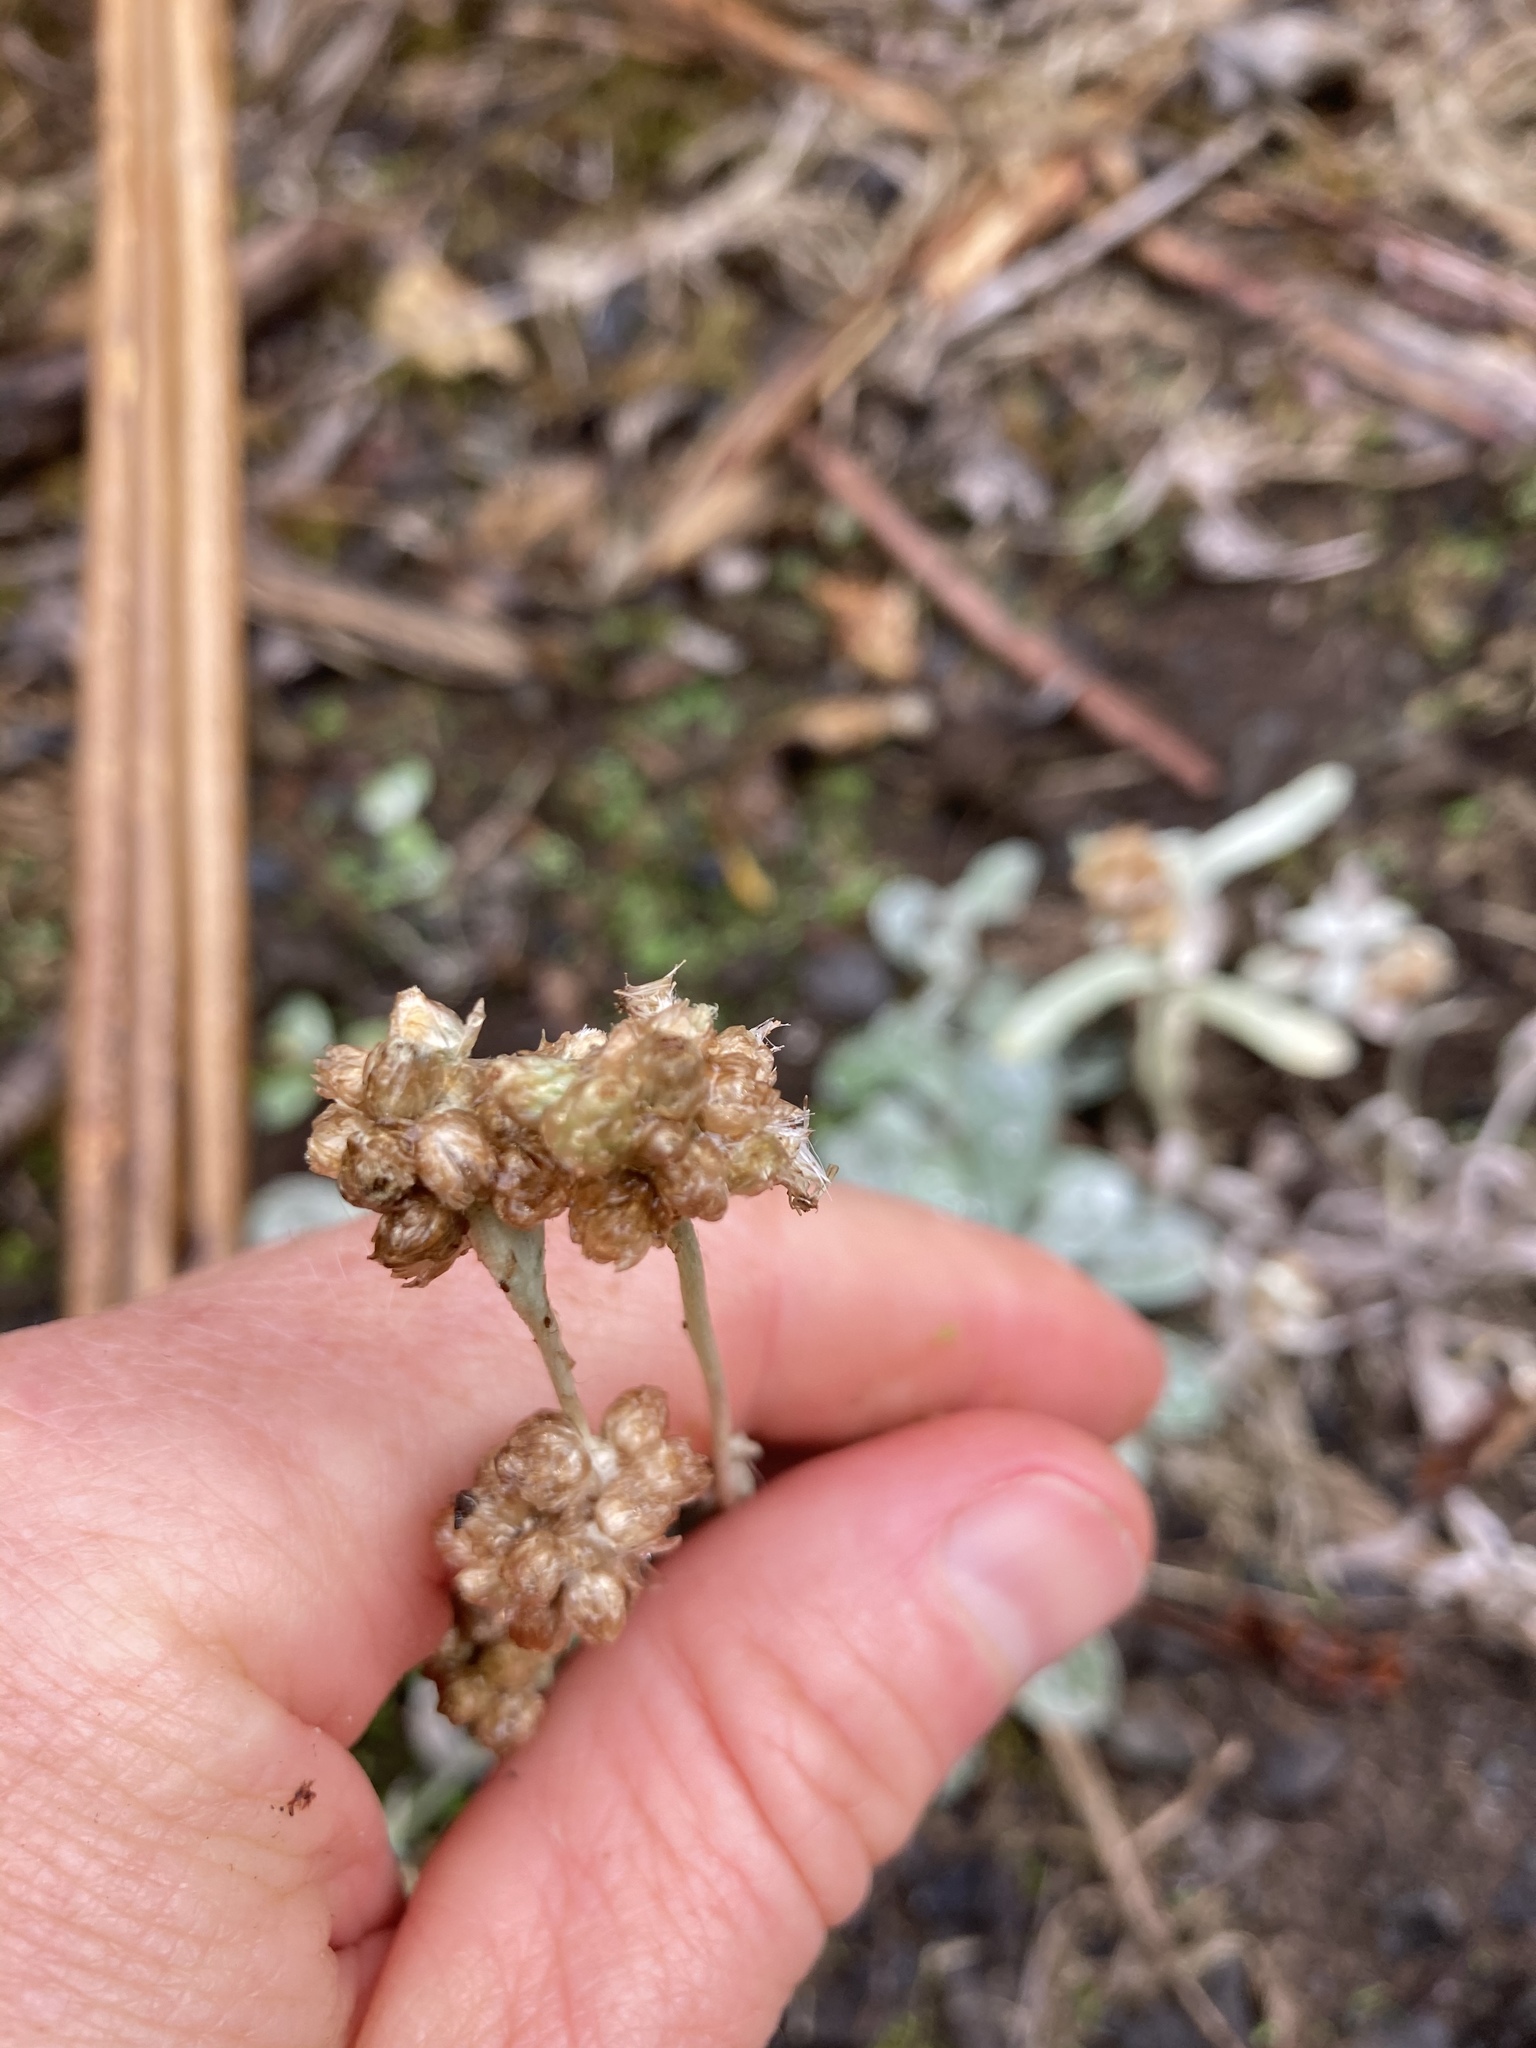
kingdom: Plantae
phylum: Tracheophyta
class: Magnoliopsida
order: Asterales
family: Asteraceae
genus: Pseudognaphalium
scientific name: Pseudognaphalium
